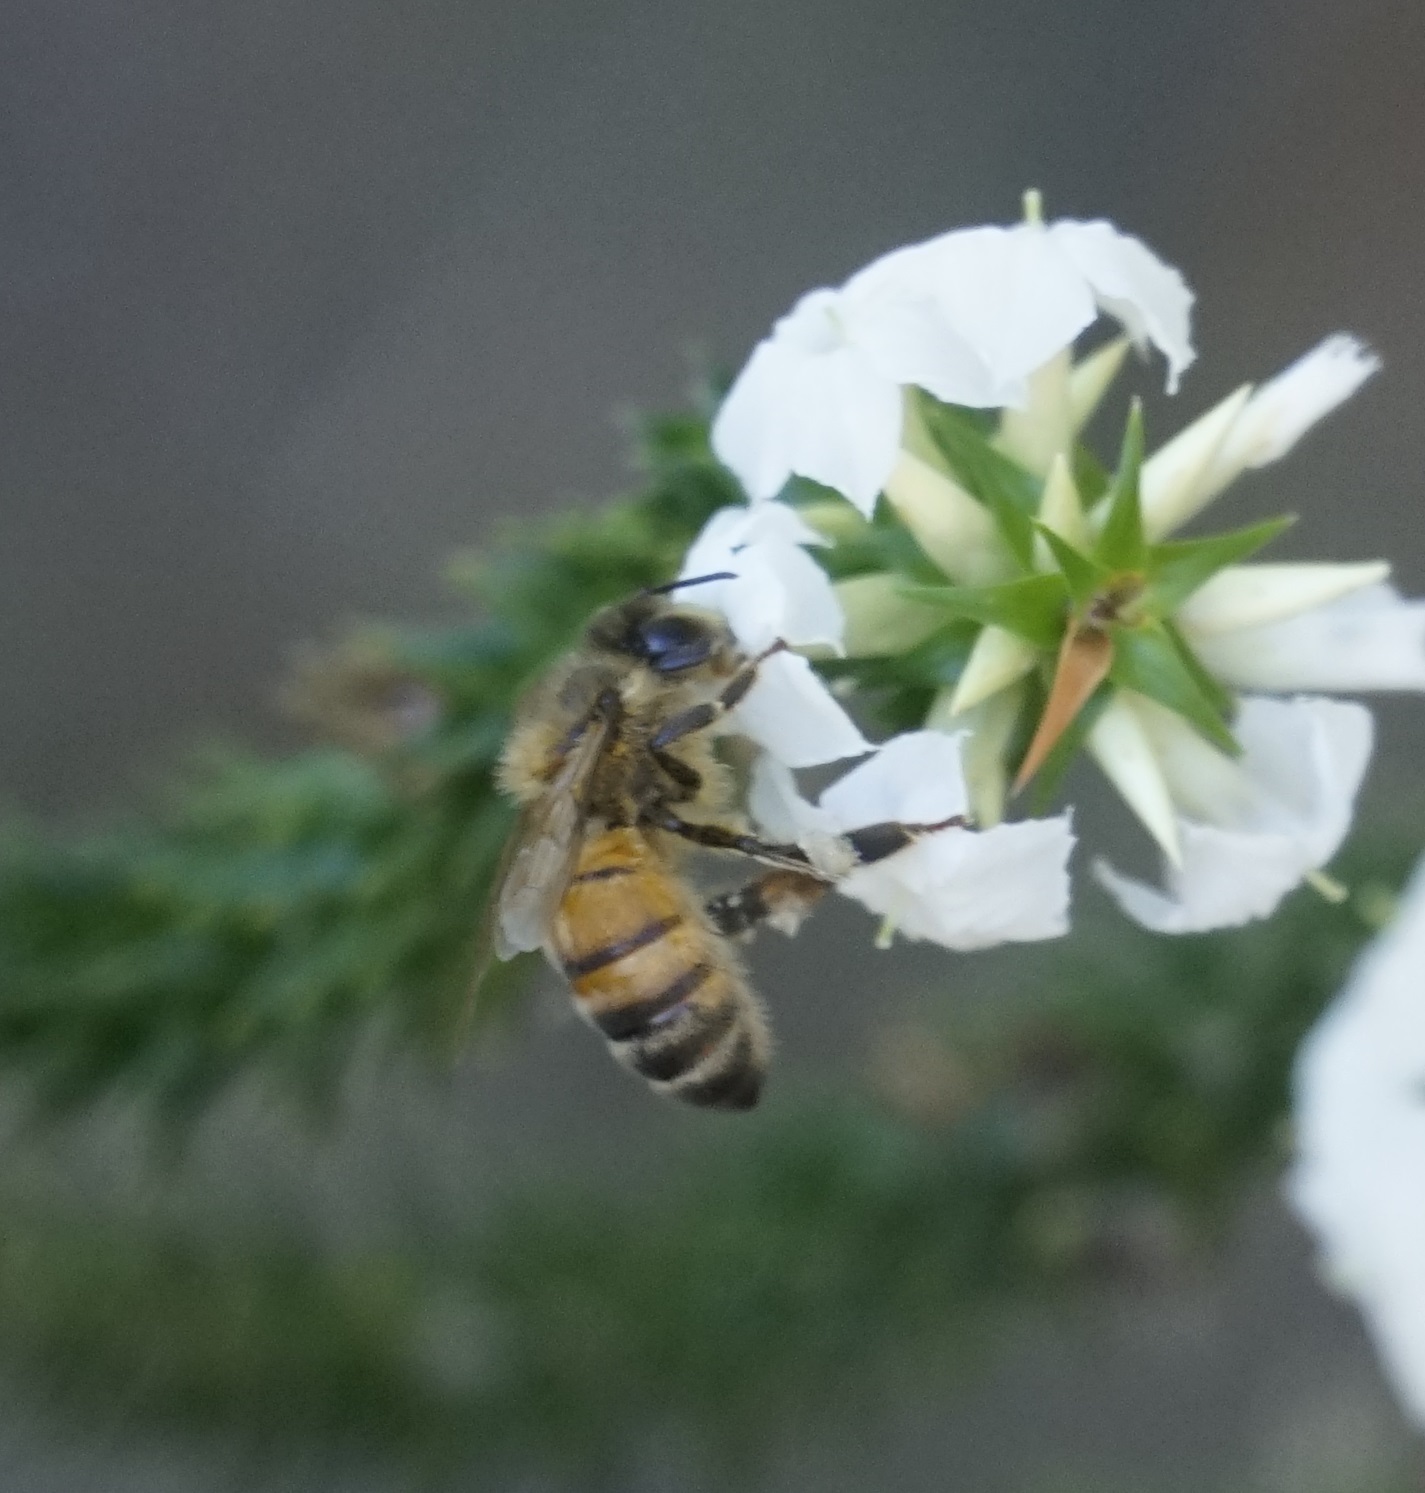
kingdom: Animalia
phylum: Arthropoda
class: Insecta
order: Hymenoptera
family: Apidae
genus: Apis
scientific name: Apis mellifera
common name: Honey bee
